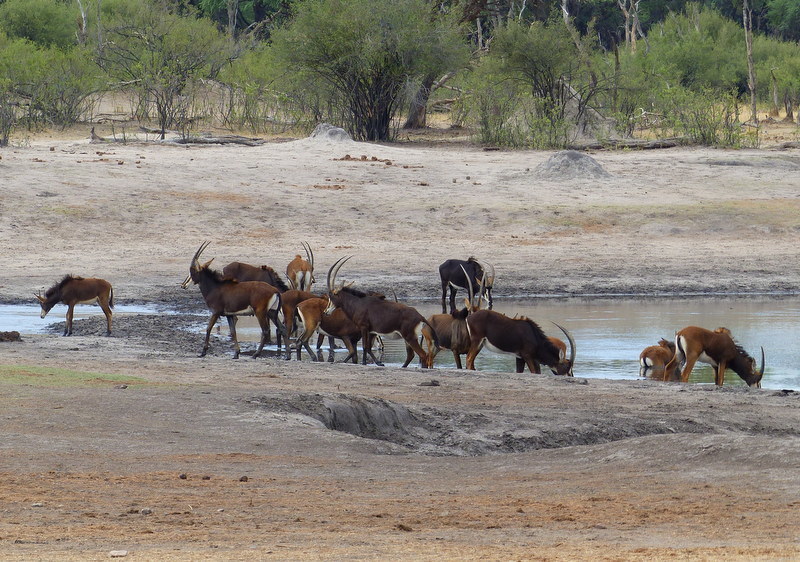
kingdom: Animalia
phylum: Chordata
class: Mammalia
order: Artiodactyla
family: Bovidae
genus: Hippotragus
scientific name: Hippotragus niger
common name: Sable antelope
